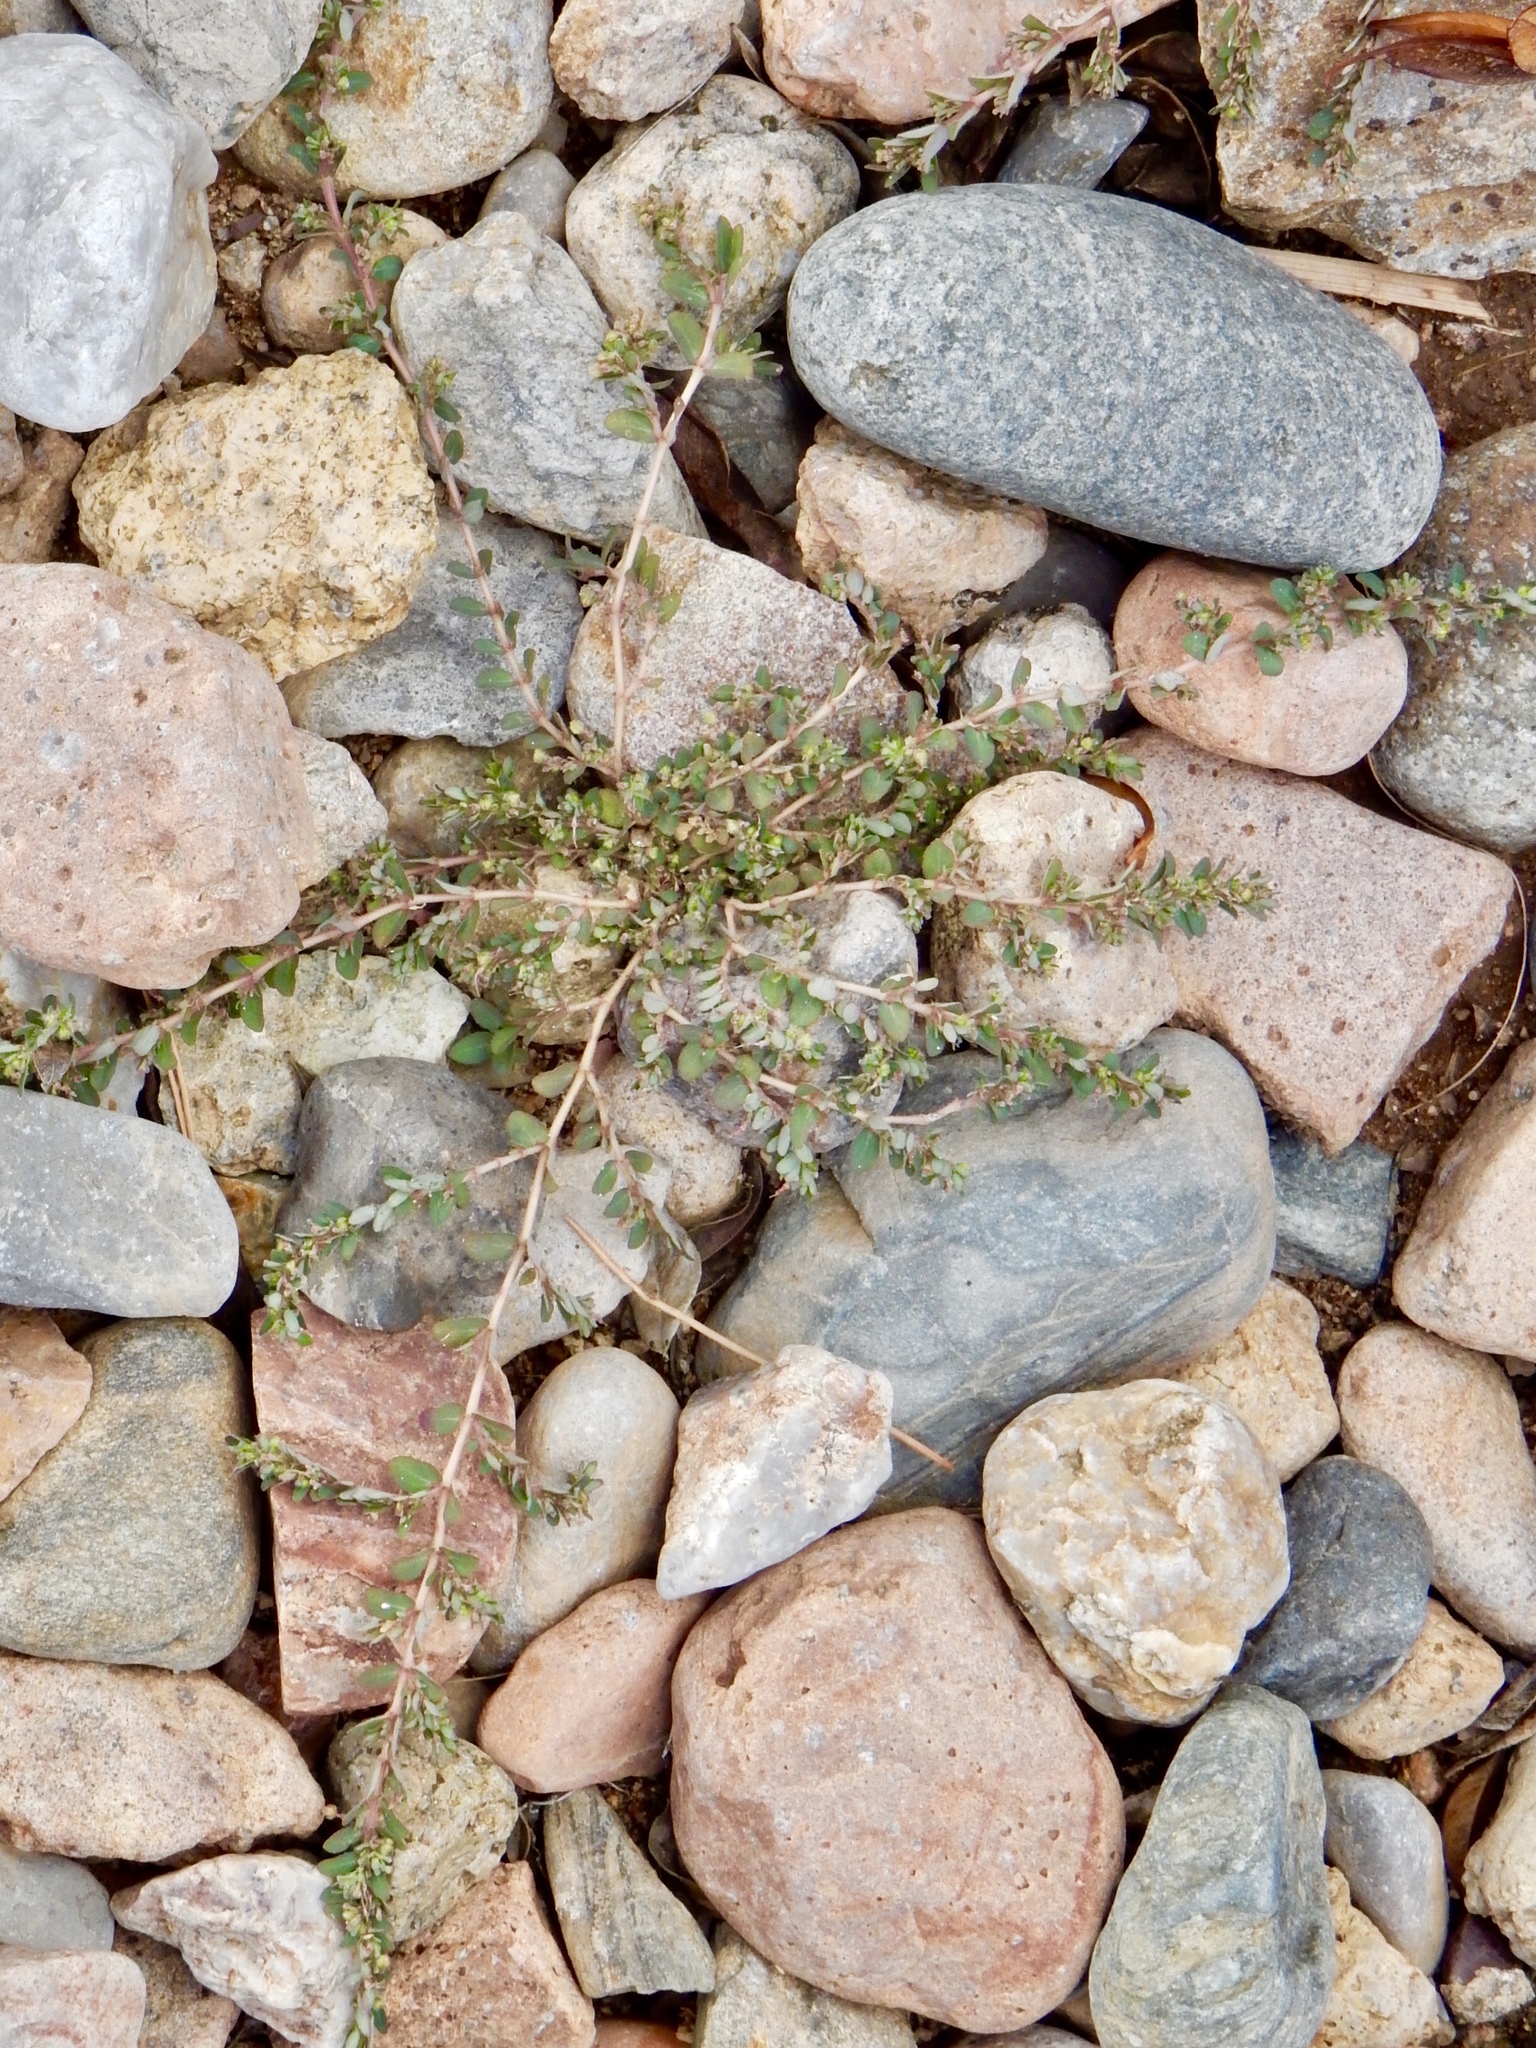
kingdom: Plantae
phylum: Tracheophyta
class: Magnoliopsida
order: Malpighiales
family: Euphorbiaceae
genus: Euphorbia
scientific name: Euphorbia prostrata
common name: Prostrate sandmat
